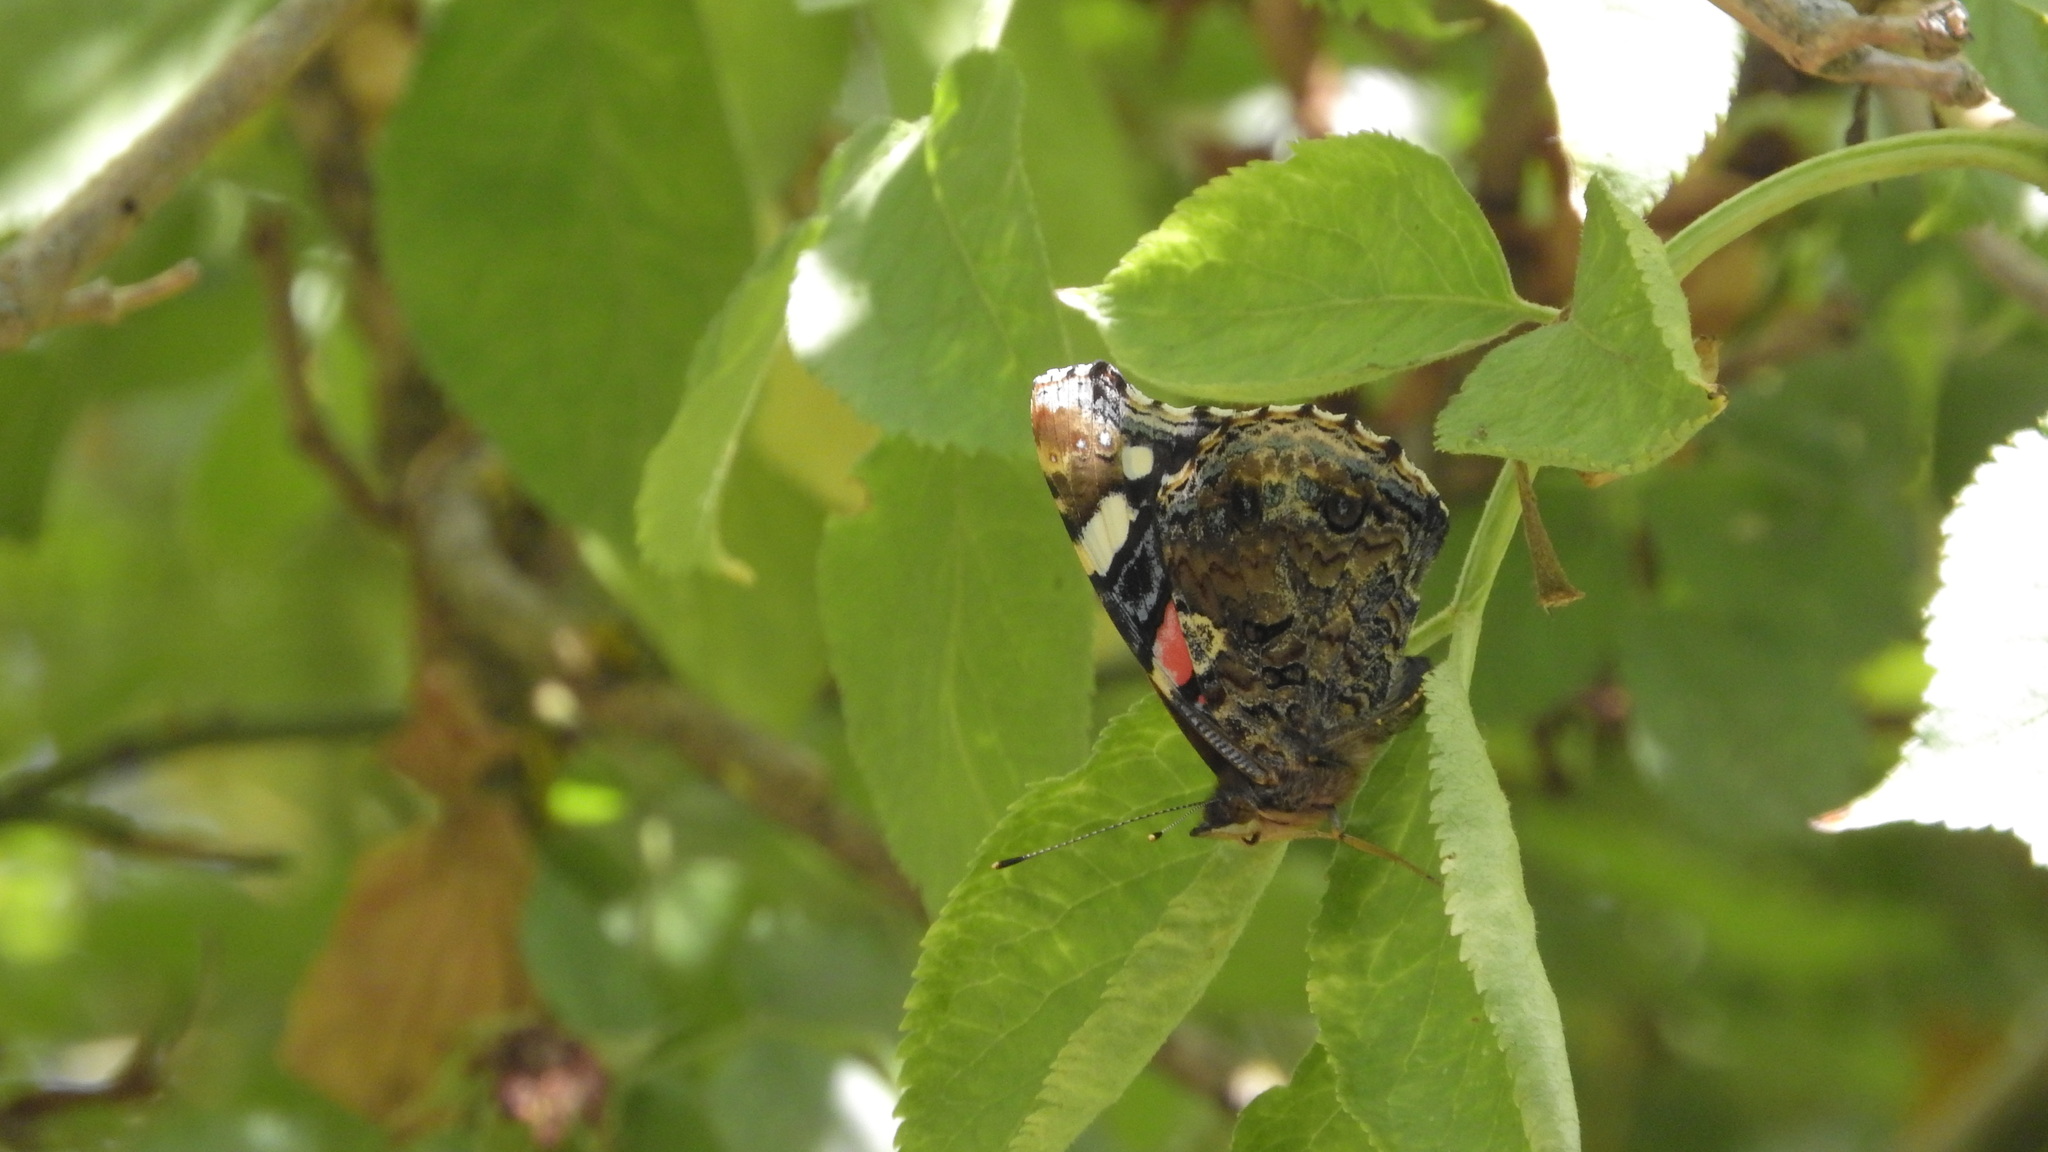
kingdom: Animalia
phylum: Arthropoda
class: Insecta
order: Lepidoptera
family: Nymphalidae
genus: Vanessa
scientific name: Vanessa atalanta
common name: Red admiral
